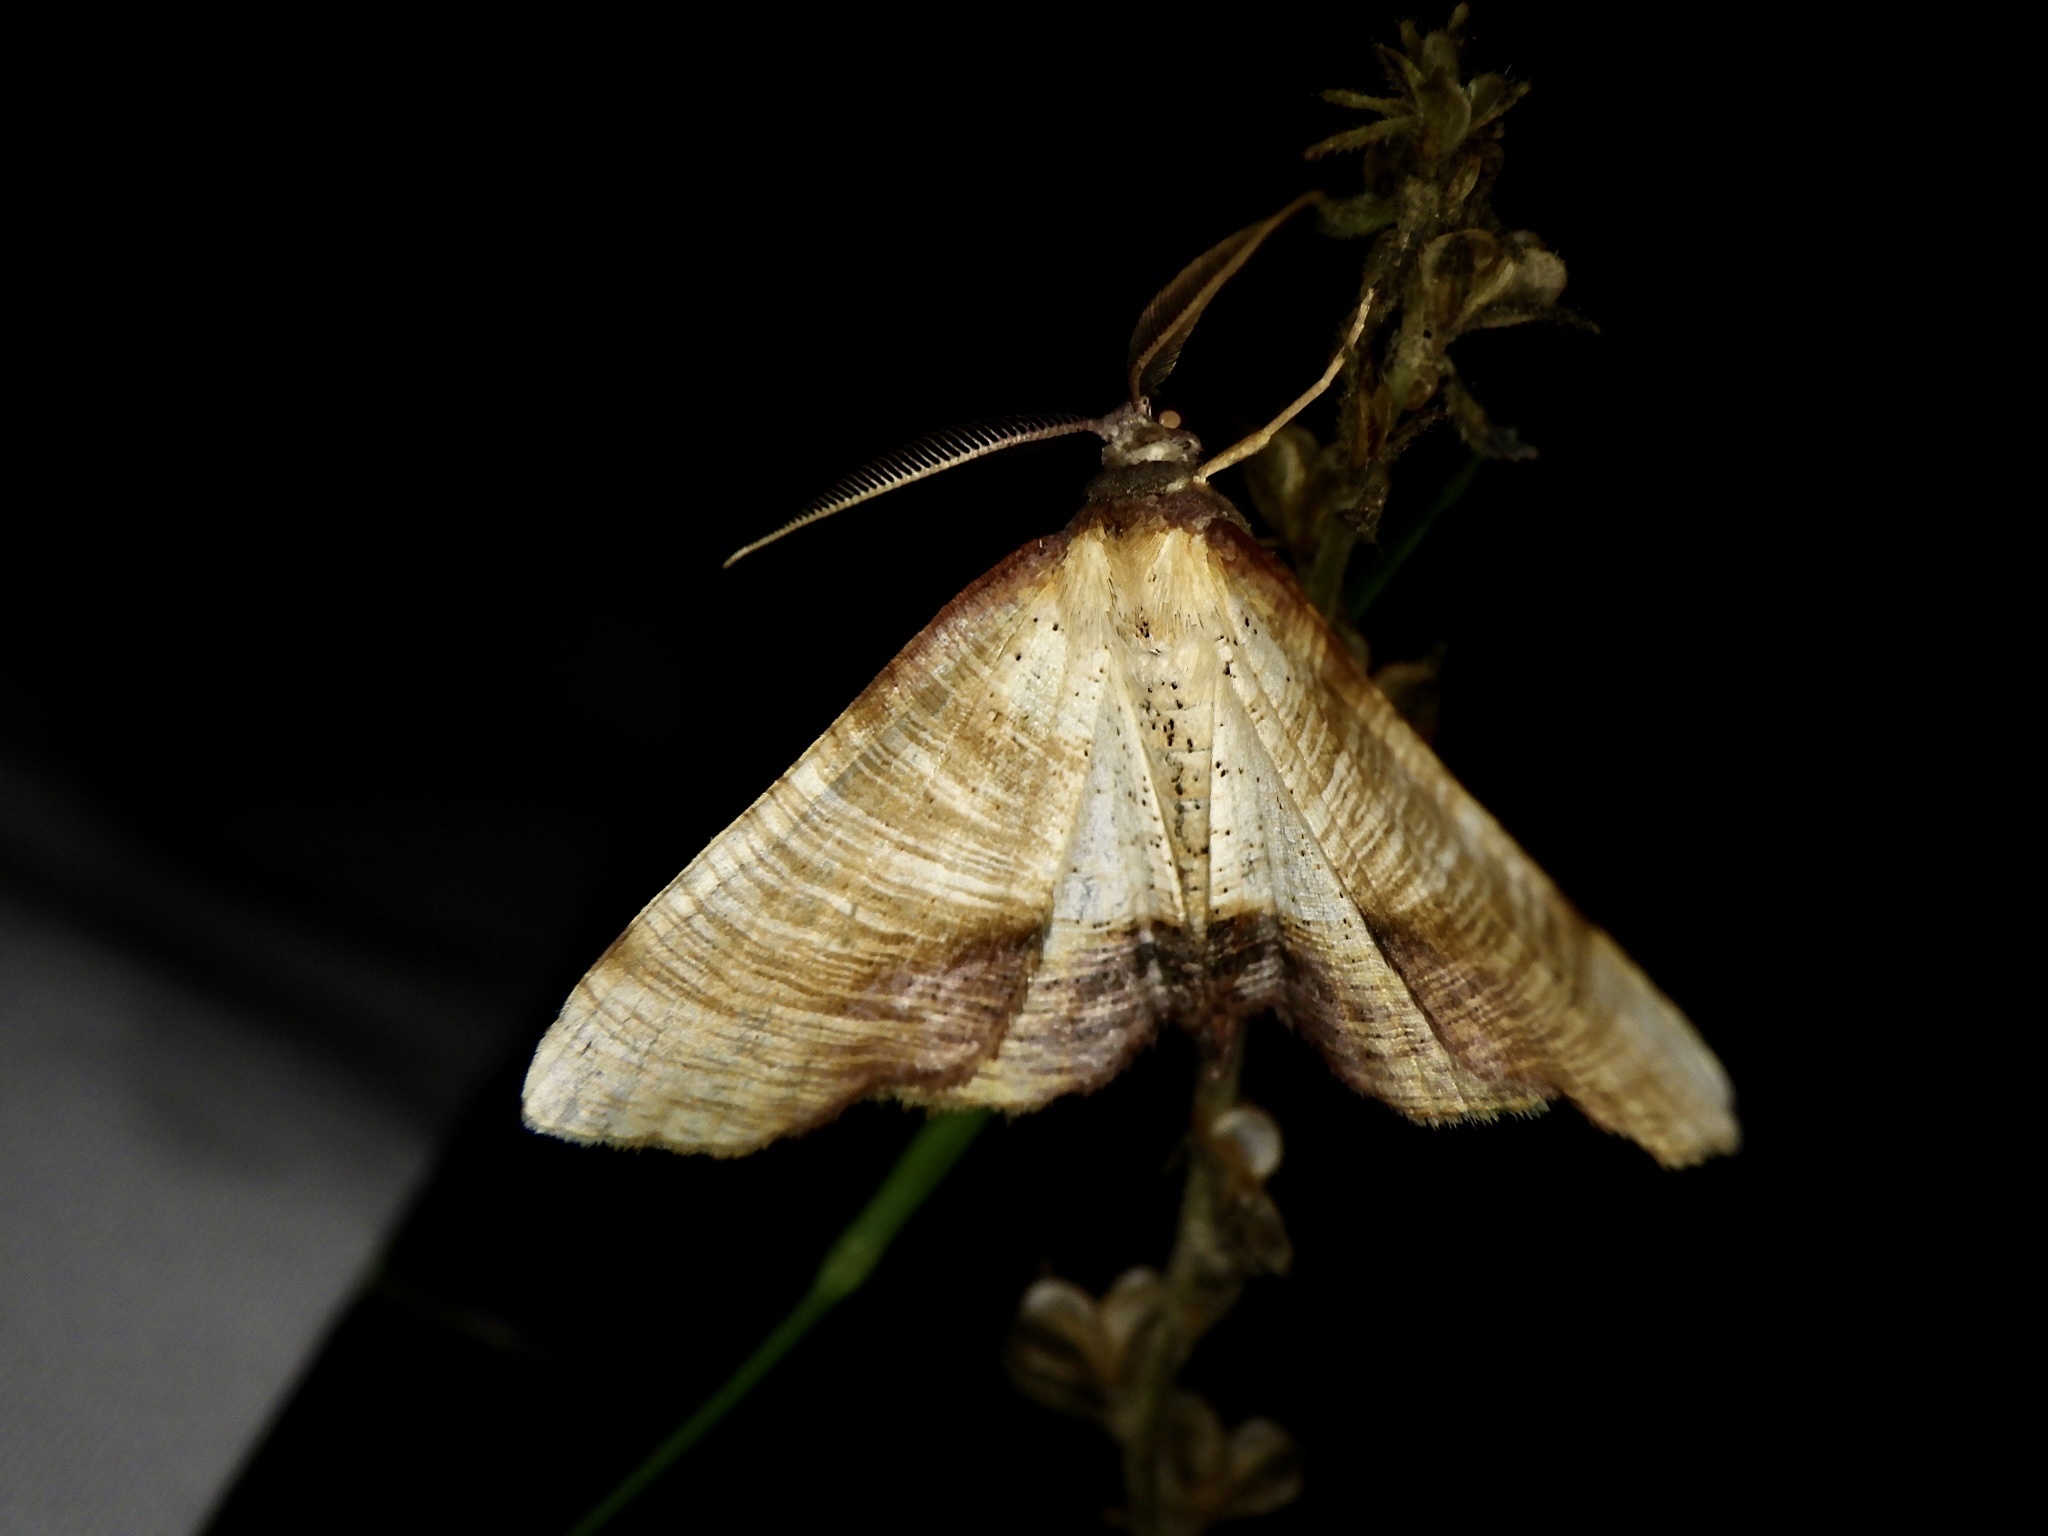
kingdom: Animalia
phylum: Arthropoda
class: Insecta
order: Lepidoptera
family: Geometridae
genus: Plagodis
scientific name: Plagodis dolabraria
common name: Scorched wing
